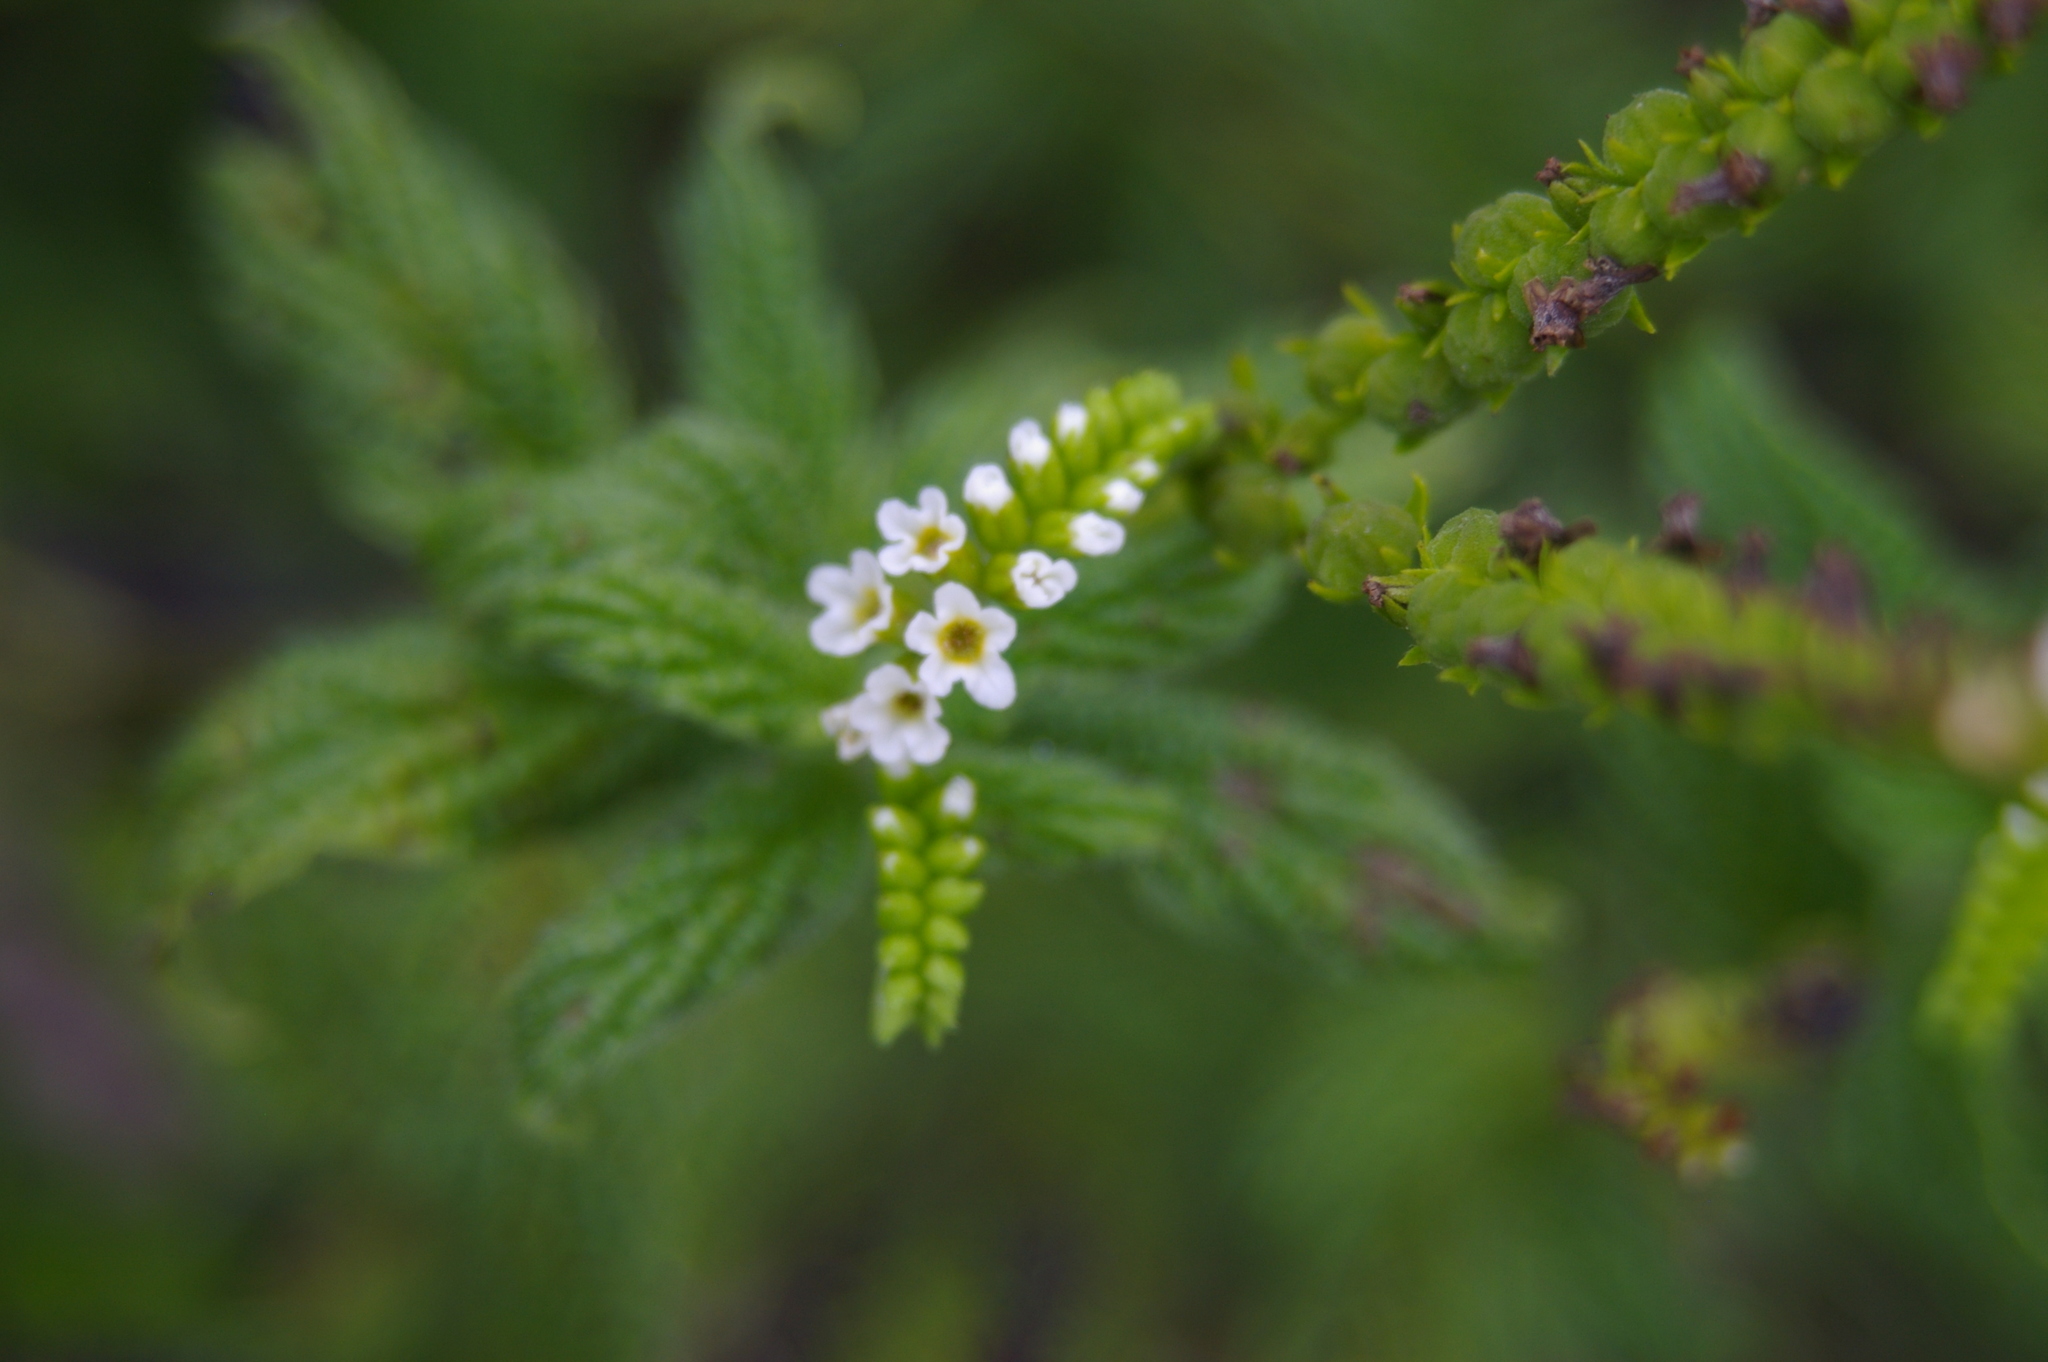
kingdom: Plantae
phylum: Tracheophyta
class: Magnoliopsida
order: Boraginales
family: Heliotropiaceae
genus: Heliotropium
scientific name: Heliotropium angiospermum
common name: Eye bright
